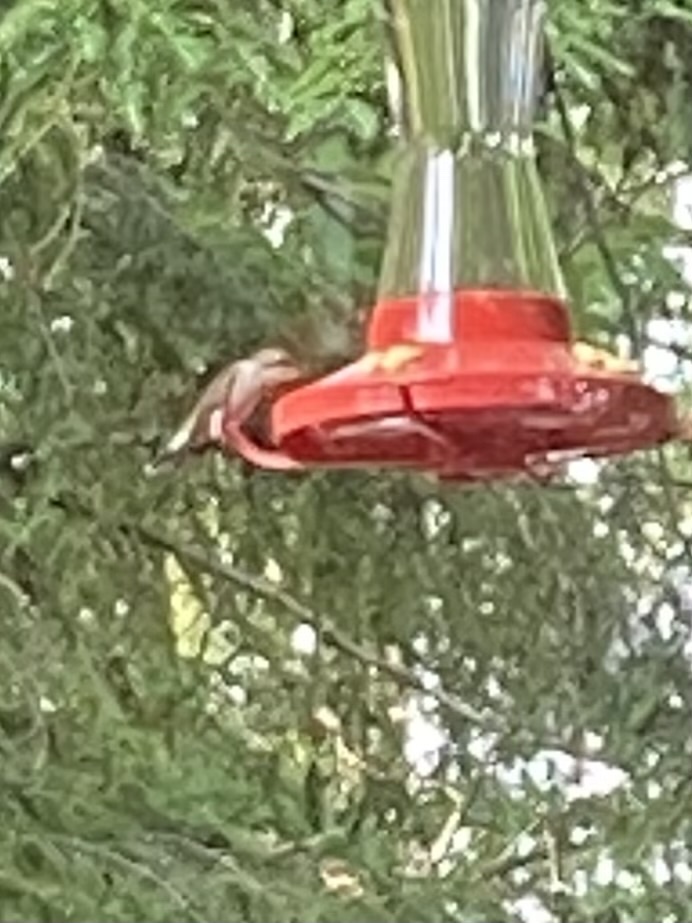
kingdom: Animalia
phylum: Chordata
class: Aves
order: Apodiformes
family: Trochilidae
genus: Archilochus
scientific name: Archilochus colubris
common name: Ruby-throated hummingbird
